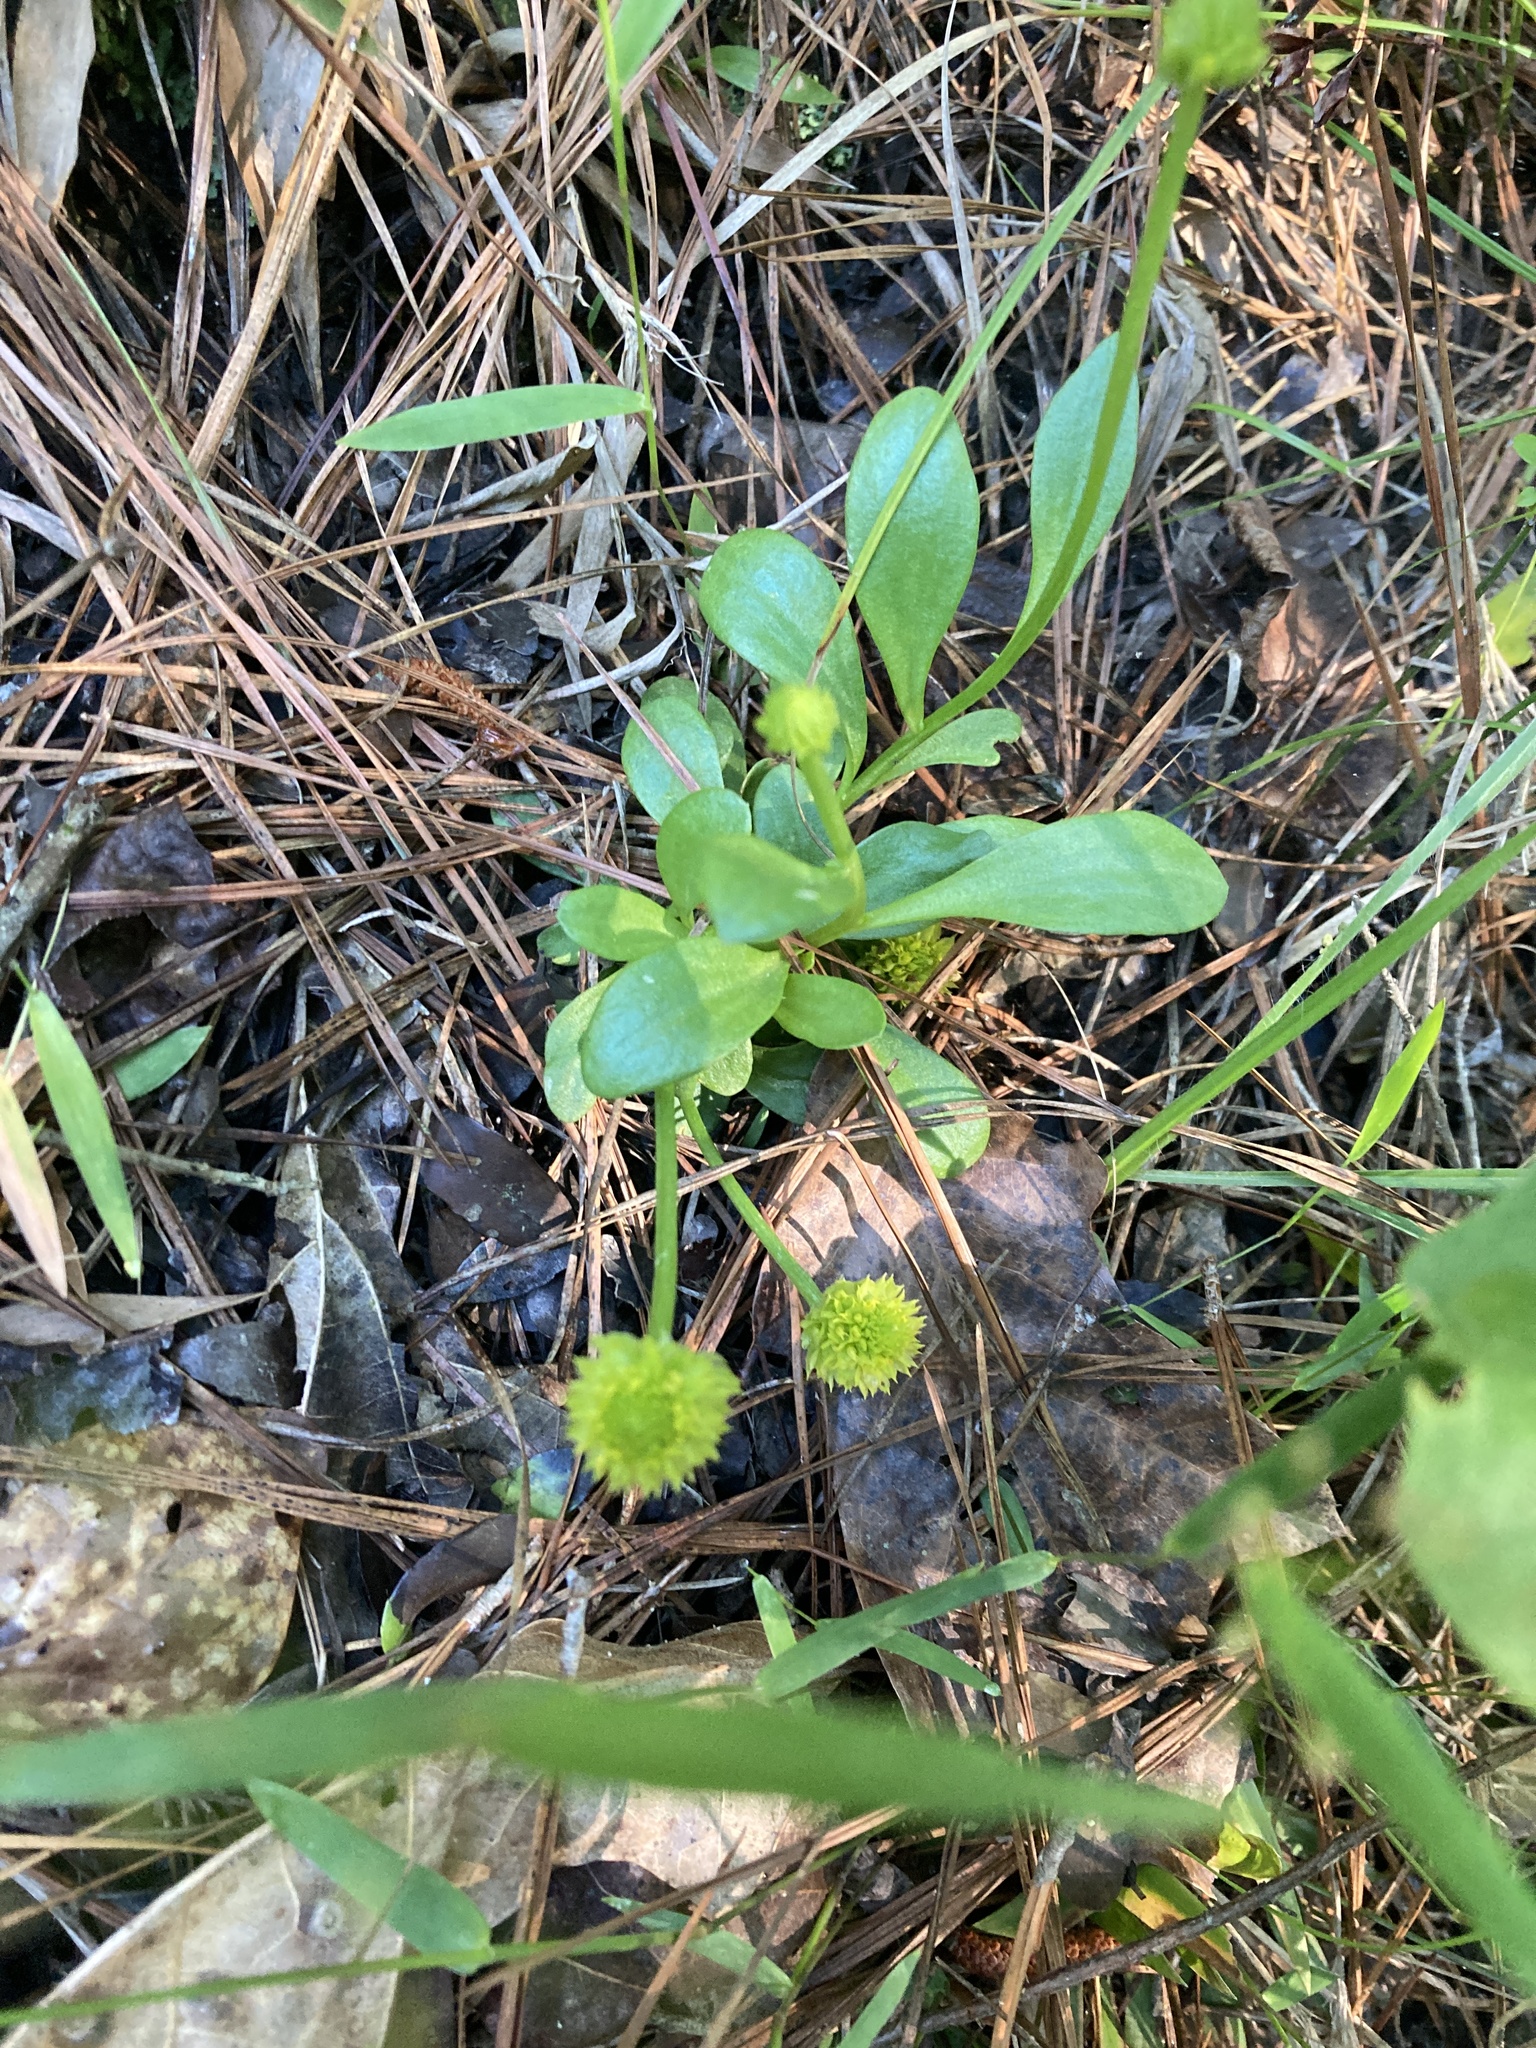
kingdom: Plantae
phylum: Tracheophyta
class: Magnoliopsida
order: Fabales
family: Polygalaceae
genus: Polygala
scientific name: Polygala nana
